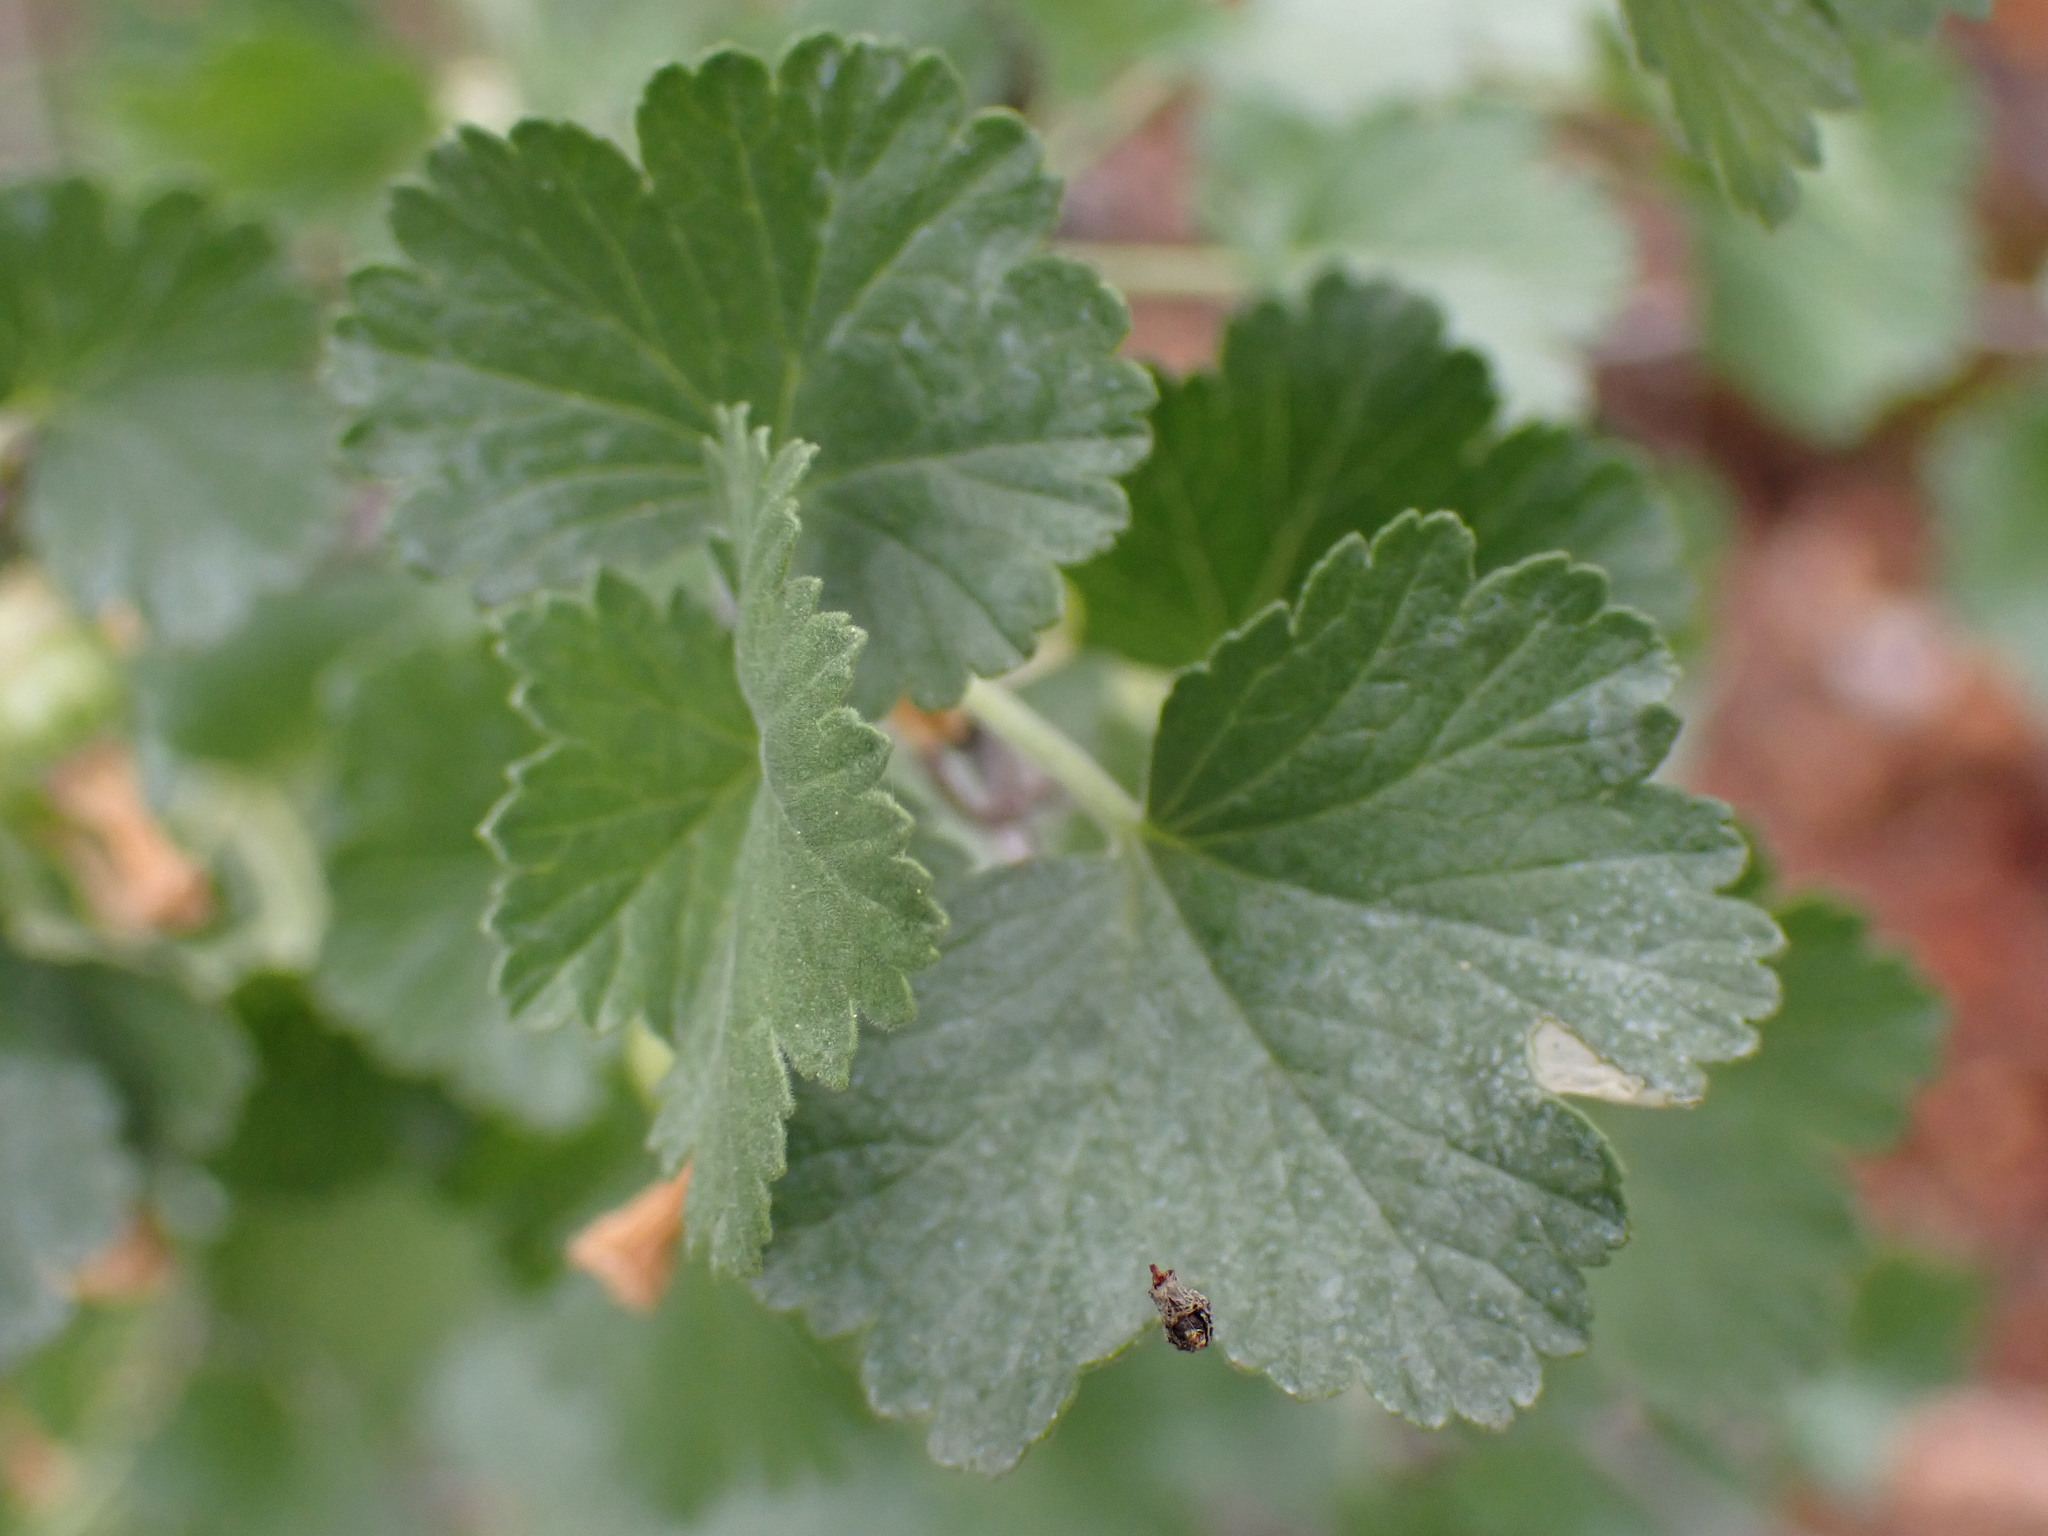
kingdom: Plantae
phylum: Tracheophyta
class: Magnoliopsida
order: Saxifragales
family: Grossulariaceae
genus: Ribes
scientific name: Ribes cereum
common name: Wax currant
